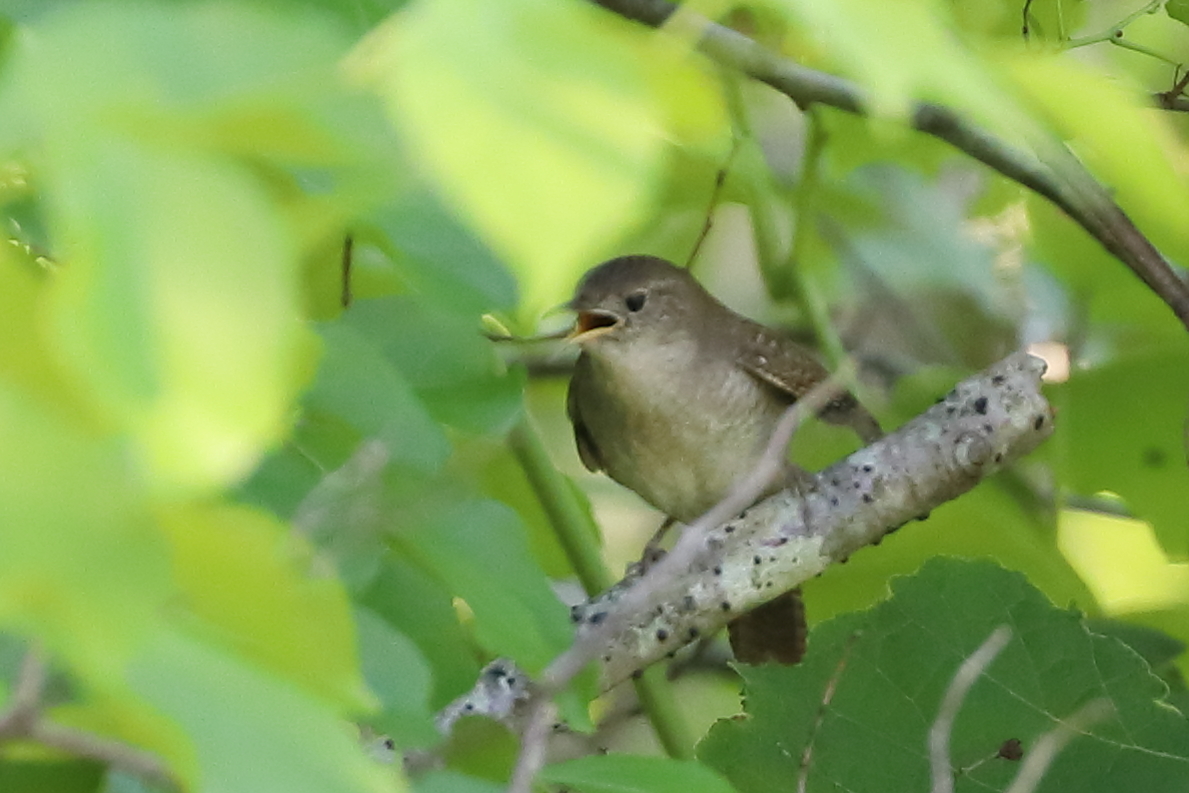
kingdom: Animalia
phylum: Chordata
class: Aves
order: Passeriformes
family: Troglodytidae
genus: Troglodytes
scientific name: Troglodytes aedon
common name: House wren
